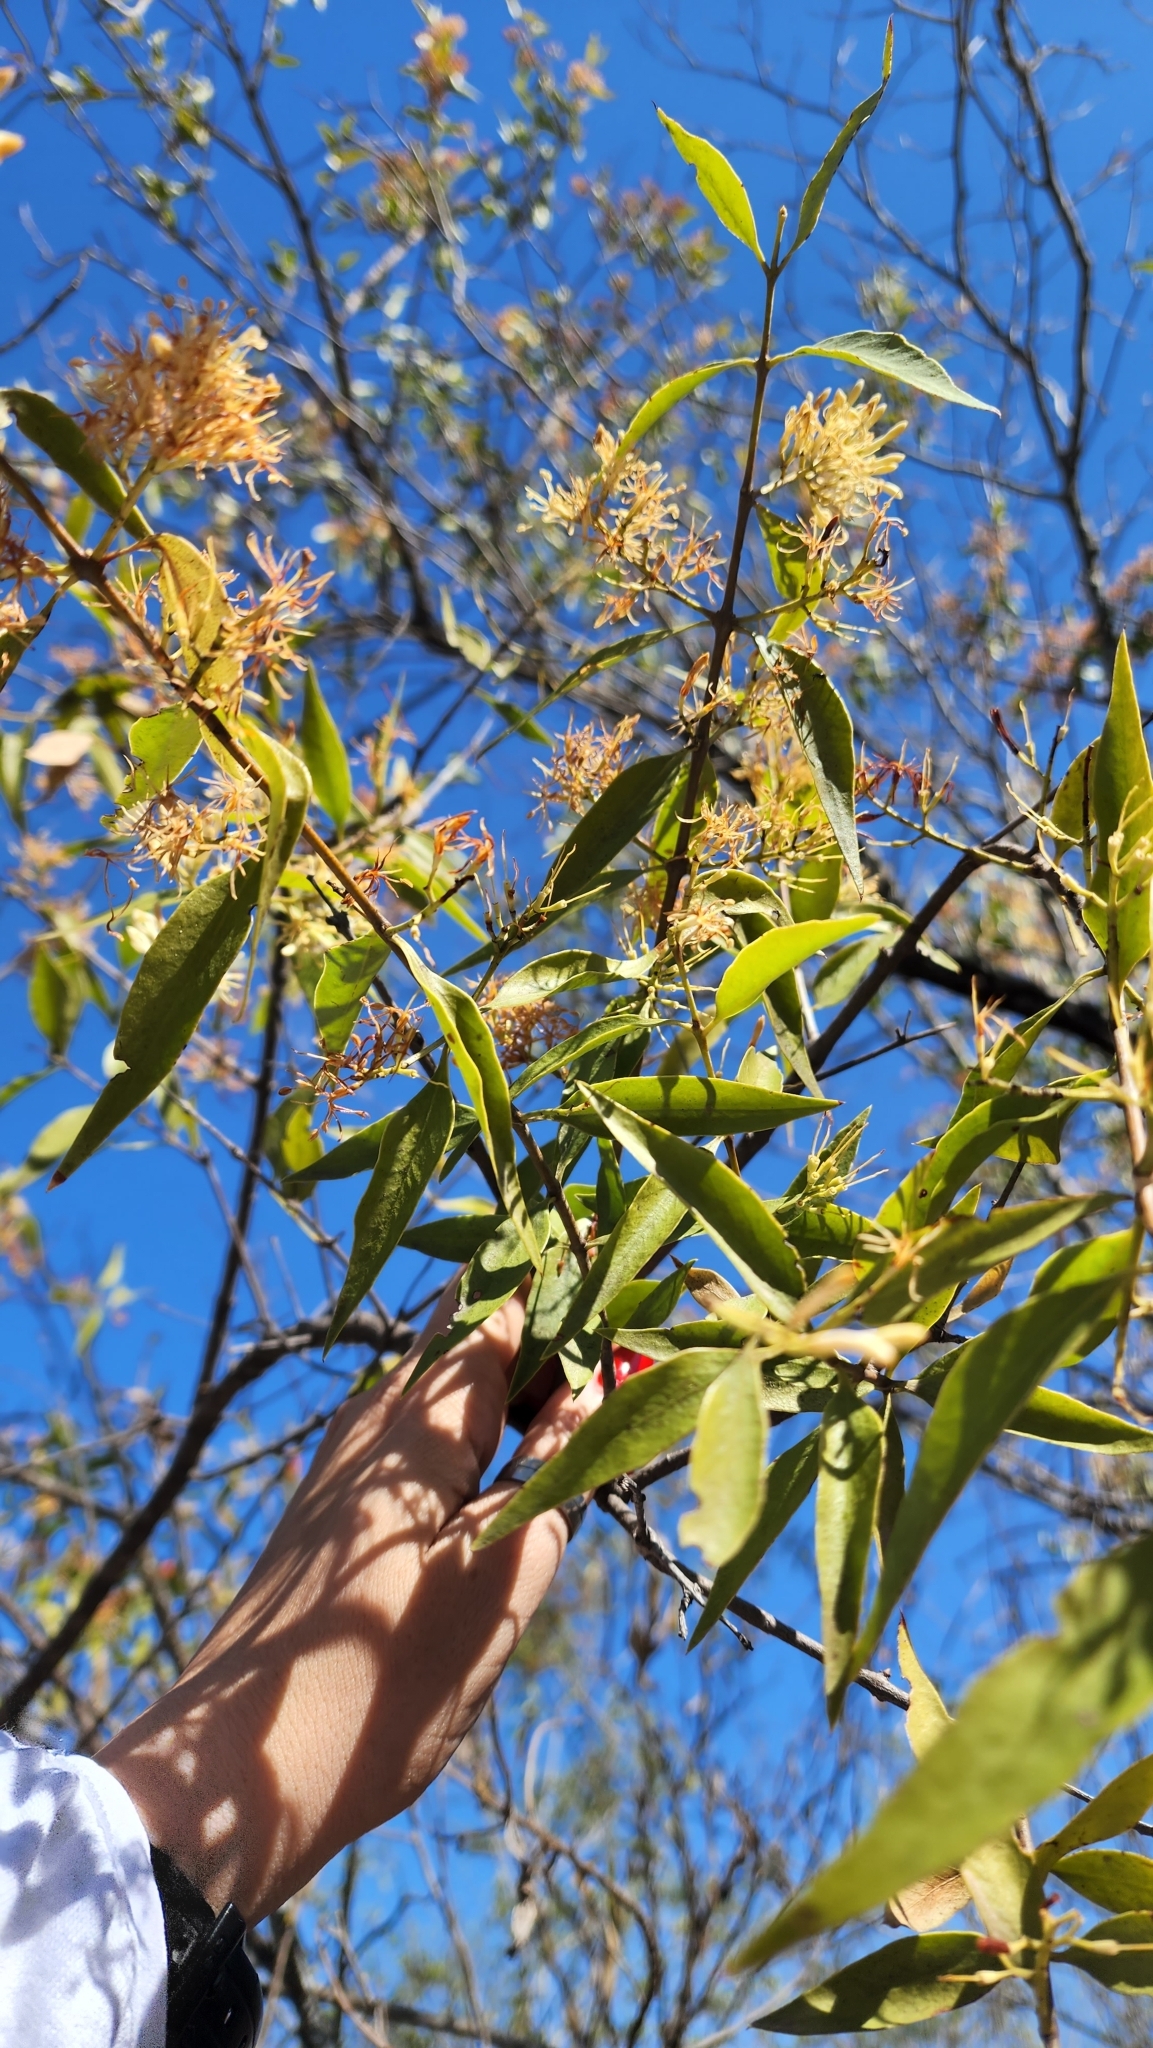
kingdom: Plantae
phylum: Tracheophyta
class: Magnoliopsida
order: Santalales
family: Loranthaceae
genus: Tripodanthus
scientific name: Tripodanthus acutifolius
